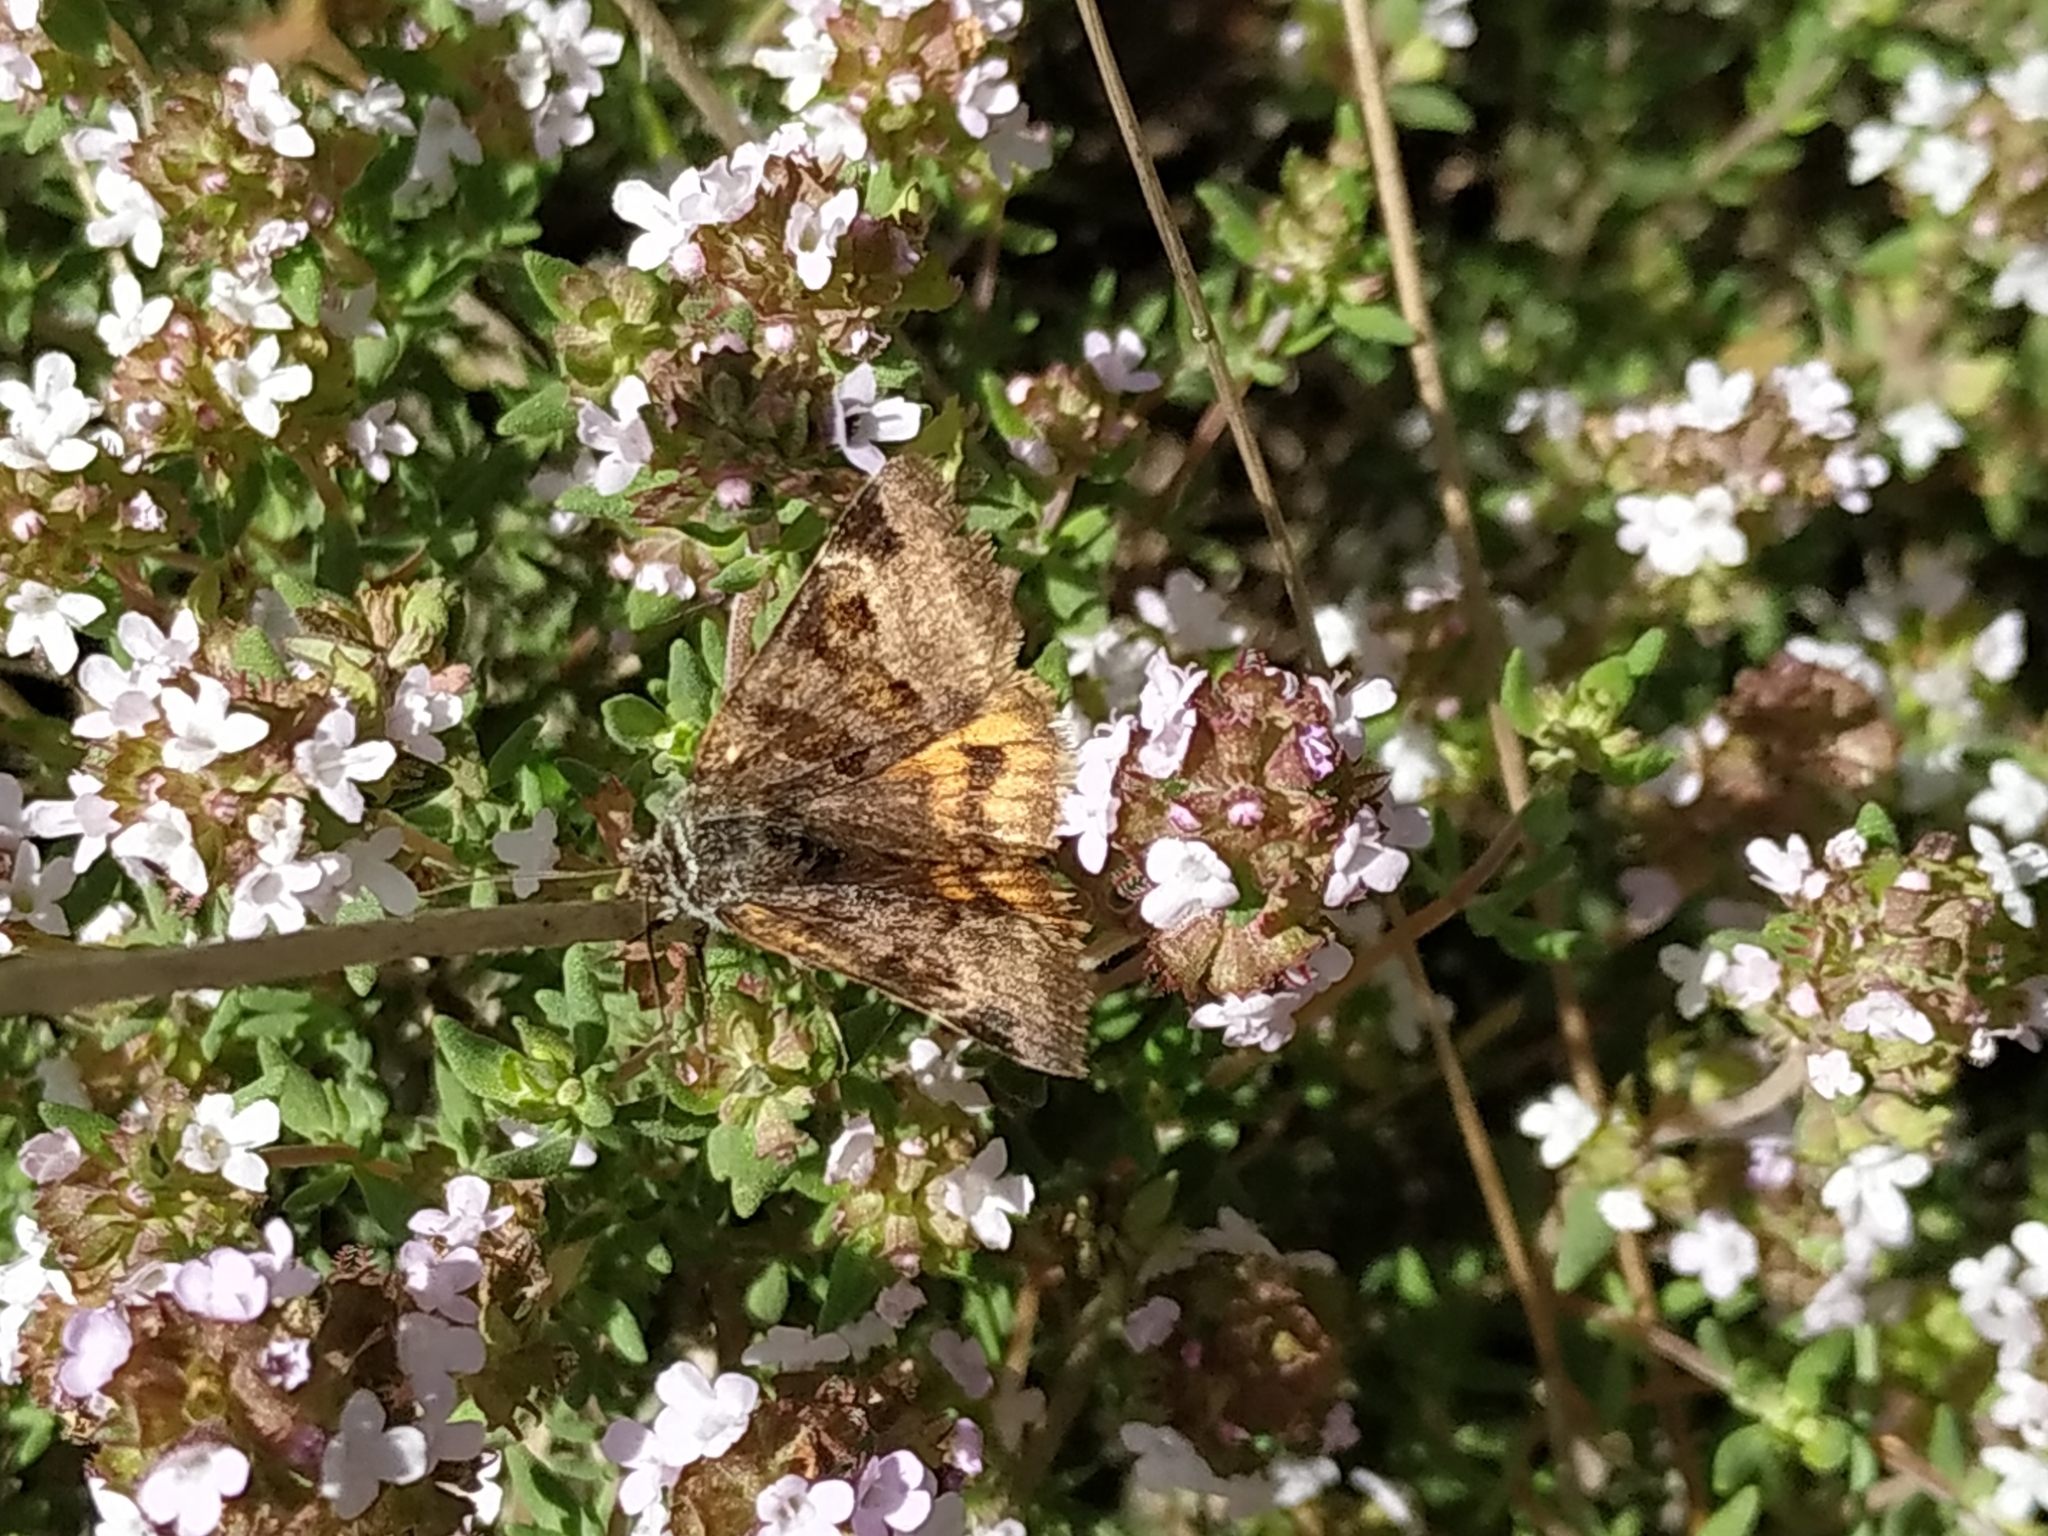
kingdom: Animalia
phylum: Arthropoda
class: Insecta
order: Lepidoptera
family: Erebidae
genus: Euclidia
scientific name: Euclidia glyphica
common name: Burnet companion
